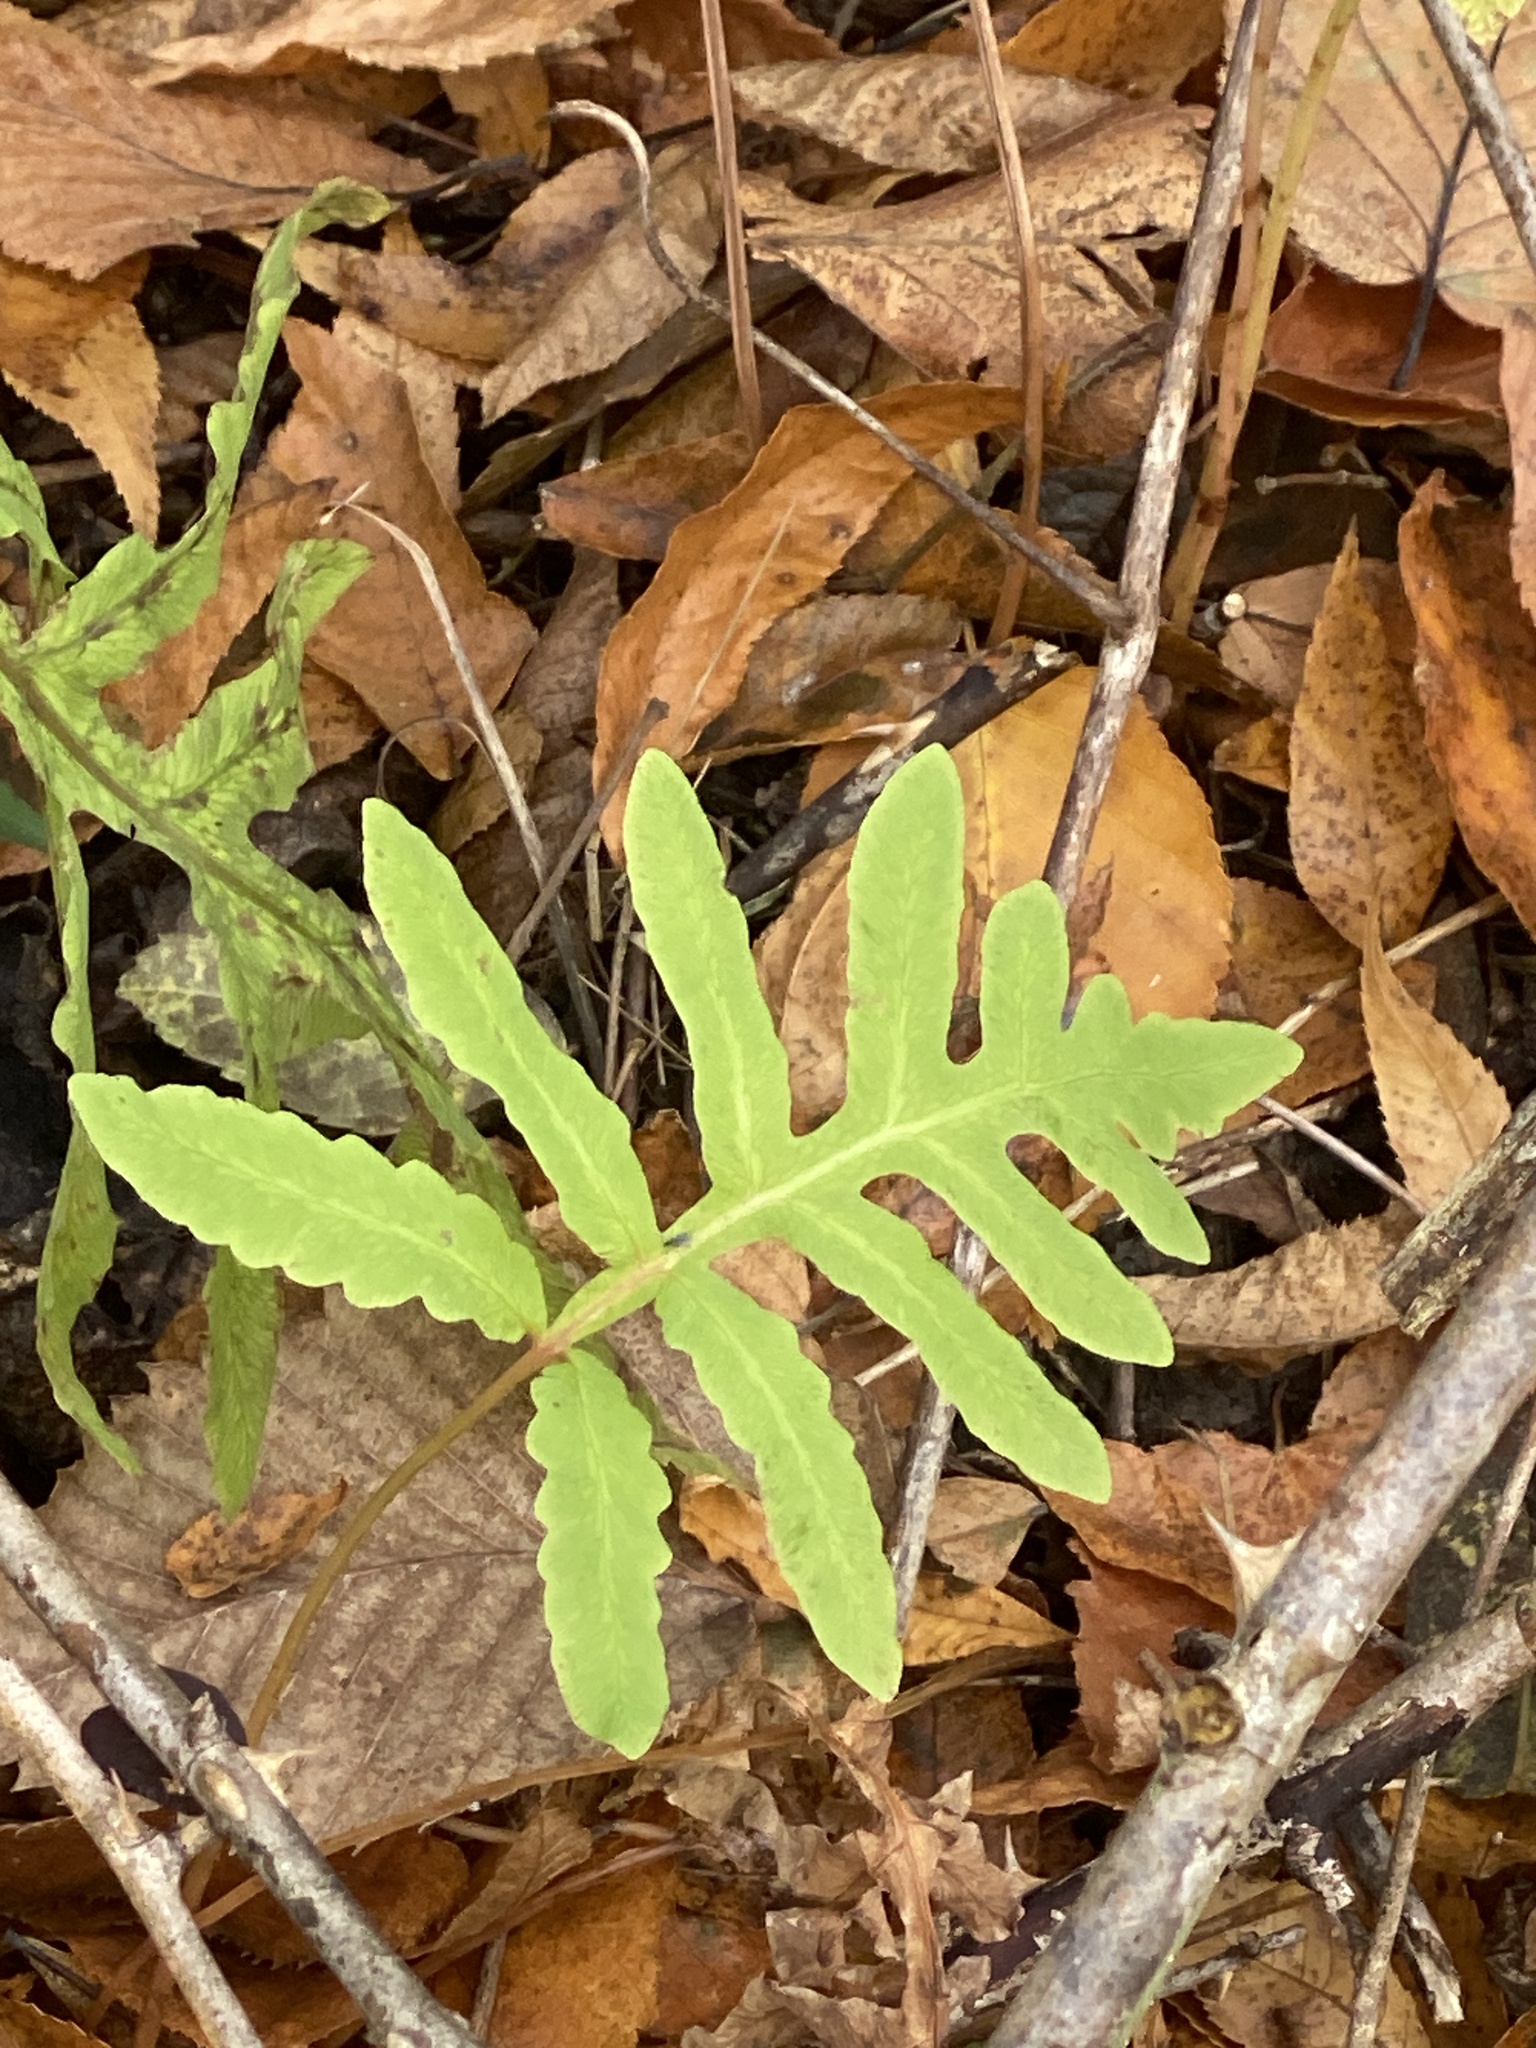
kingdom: Plantae
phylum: Tracheophyta
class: Polypodiopsida
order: Polypodiales
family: Onocleaceae
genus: Onoclea
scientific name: Onoclea sensibilis
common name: Sensitive fern
